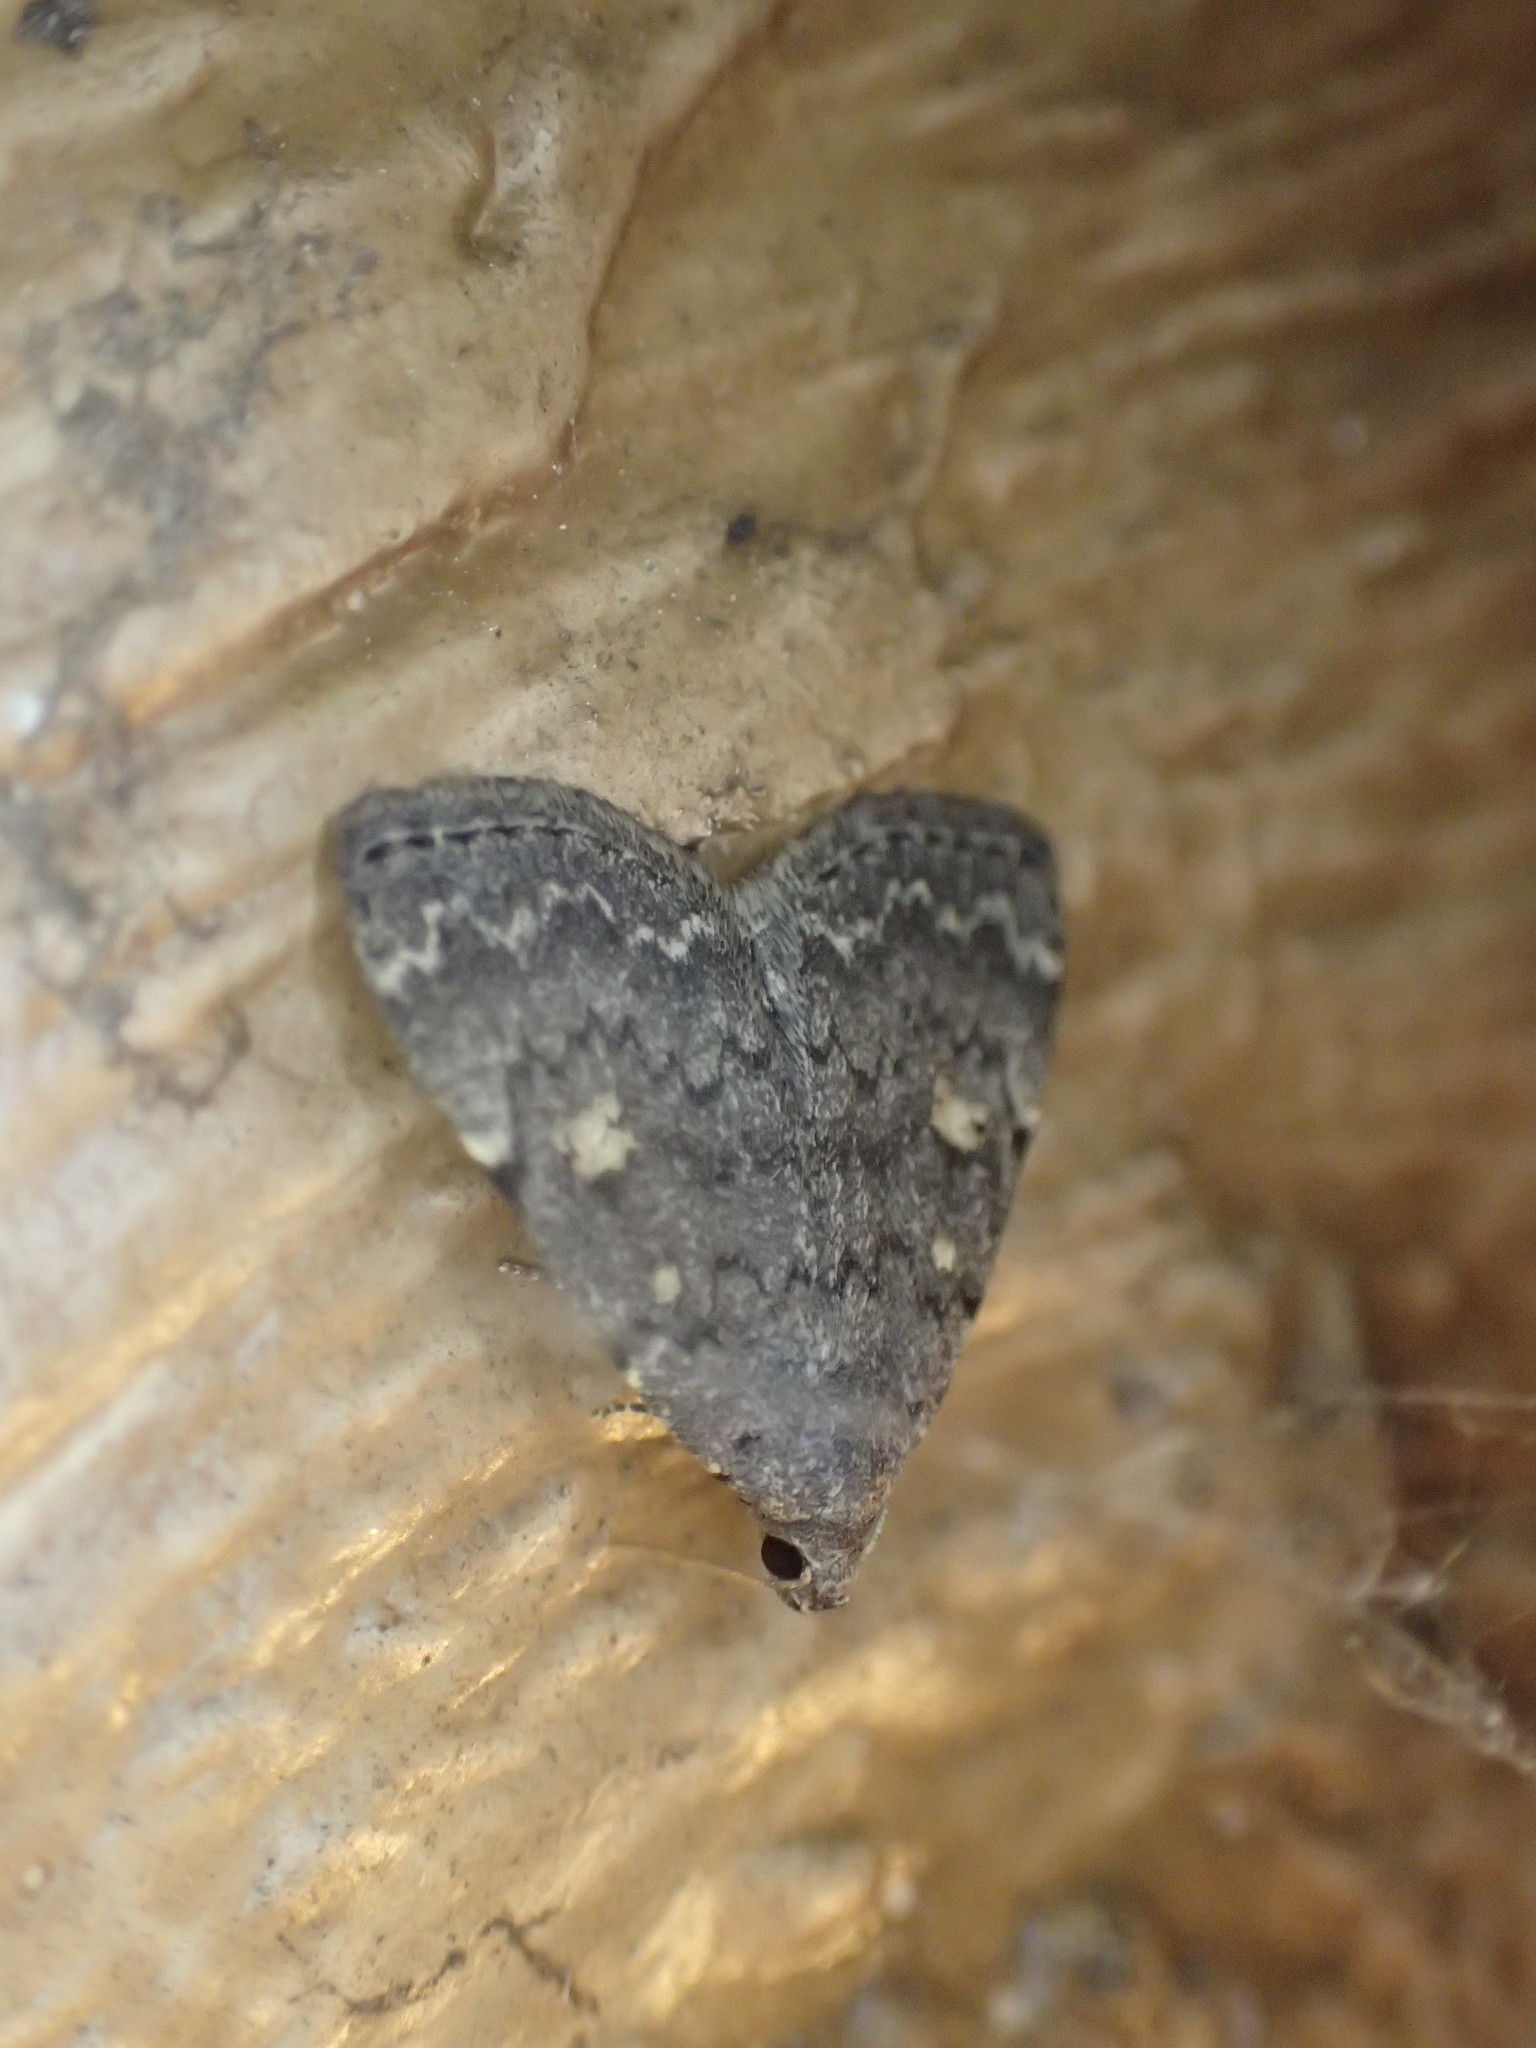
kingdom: Animalia
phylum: Arthropoda
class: Insecta
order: Lepidoptera
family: Erebidae
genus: Idia
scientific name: Idia aemula
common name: Common idia moth
